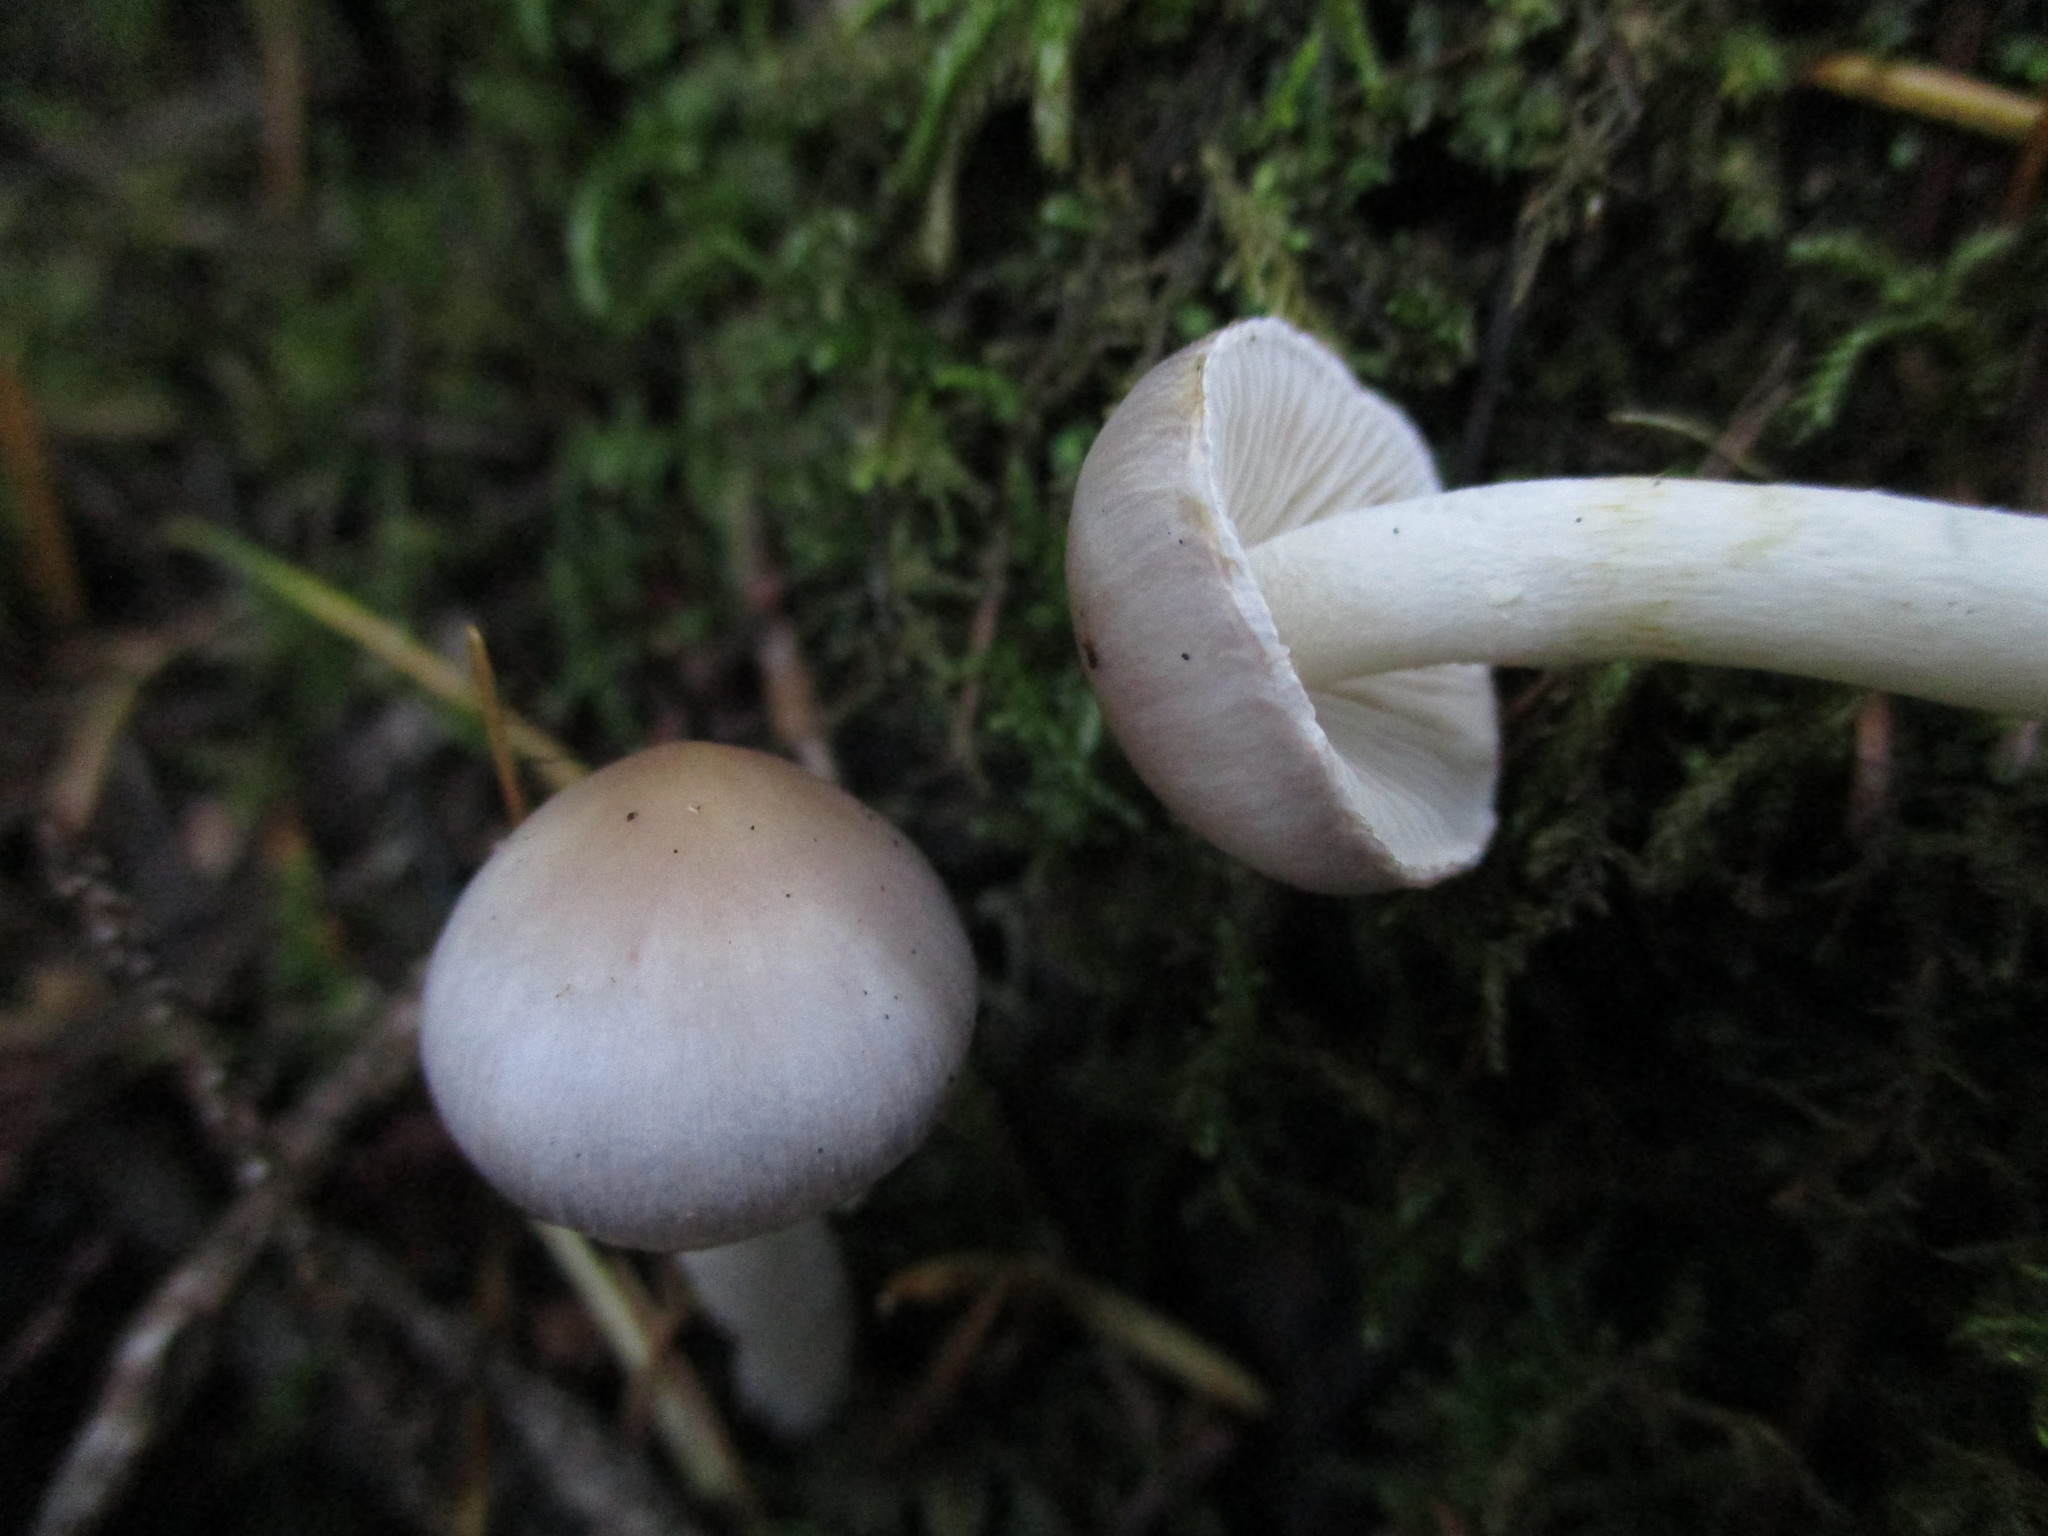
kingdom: Fungi
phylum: Basidiomycota
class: Agaricomycetes
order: Agaricales
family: Inocybaceae
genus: Inocybe
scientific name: Inocybe geophylla
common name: White fibrecap
